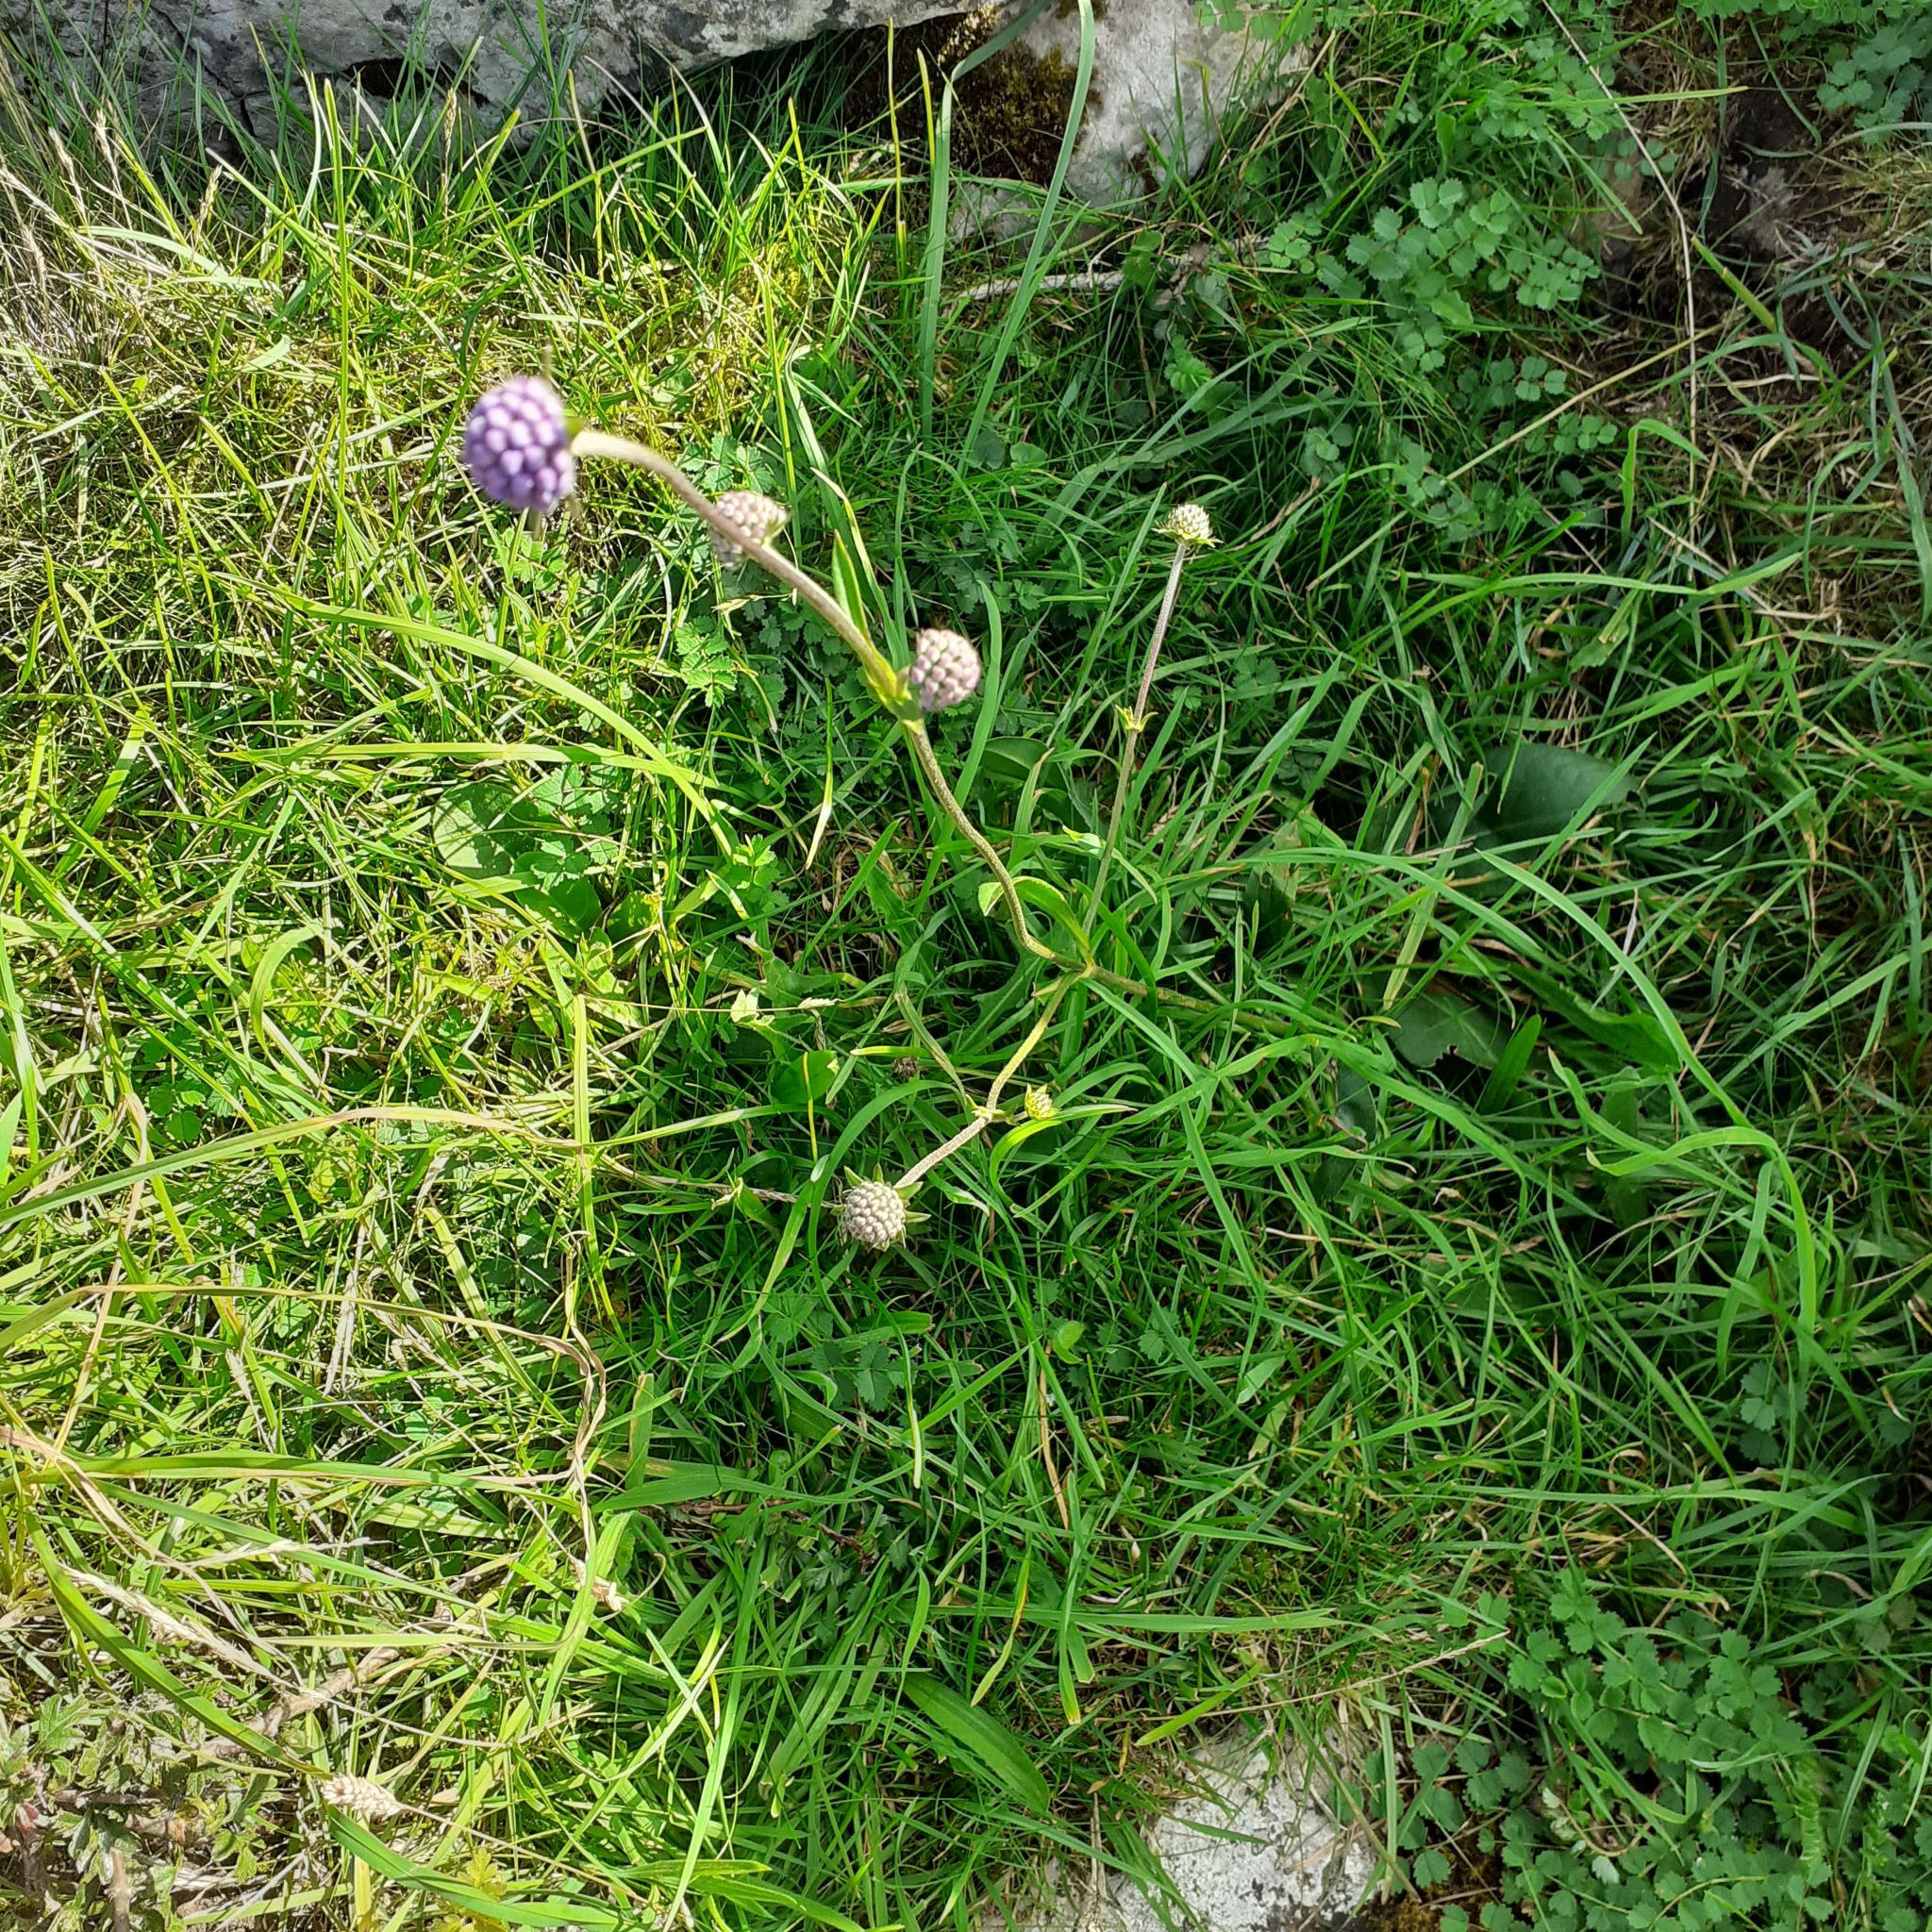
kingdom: Plantae
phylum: Tracheophyta
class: Magnoliopsida
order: Dipsacales
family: Caprifoliaceae
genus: Succisa
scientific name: Succisa pratensis
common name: Devil's-bit
